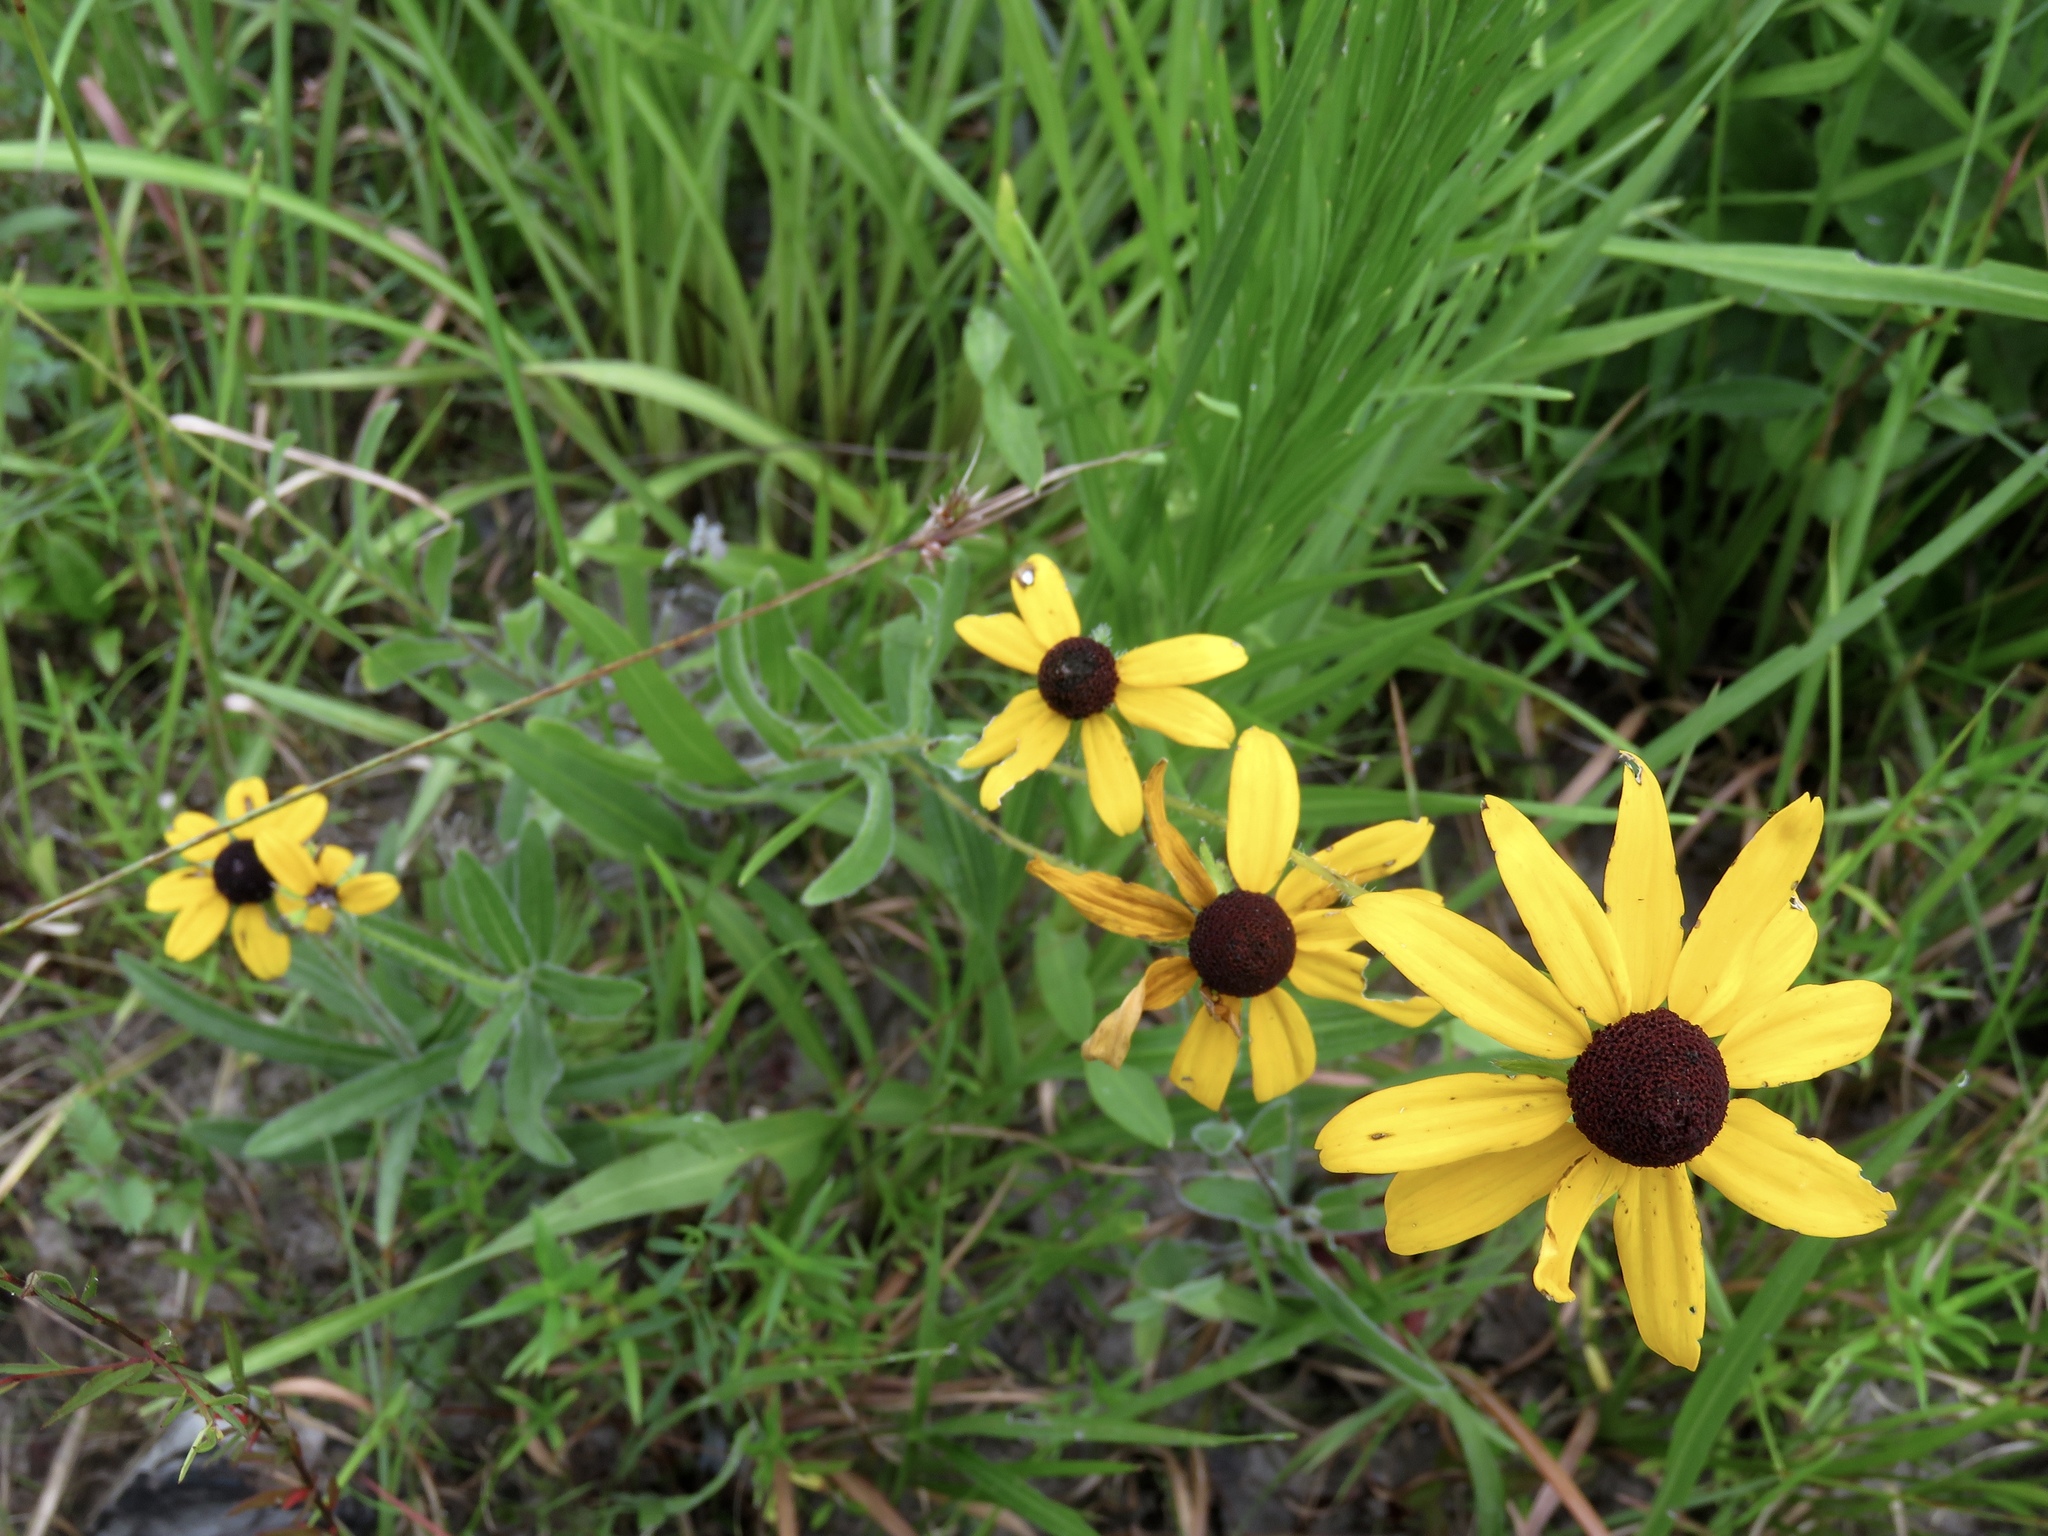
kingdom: Plantae
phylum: Tracheophyta
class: Magnoliopsida
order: Asterales
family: Asteraceae
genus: Rudbeckia
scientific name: Rudbeckia hirta
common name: Black-eyed-susan
